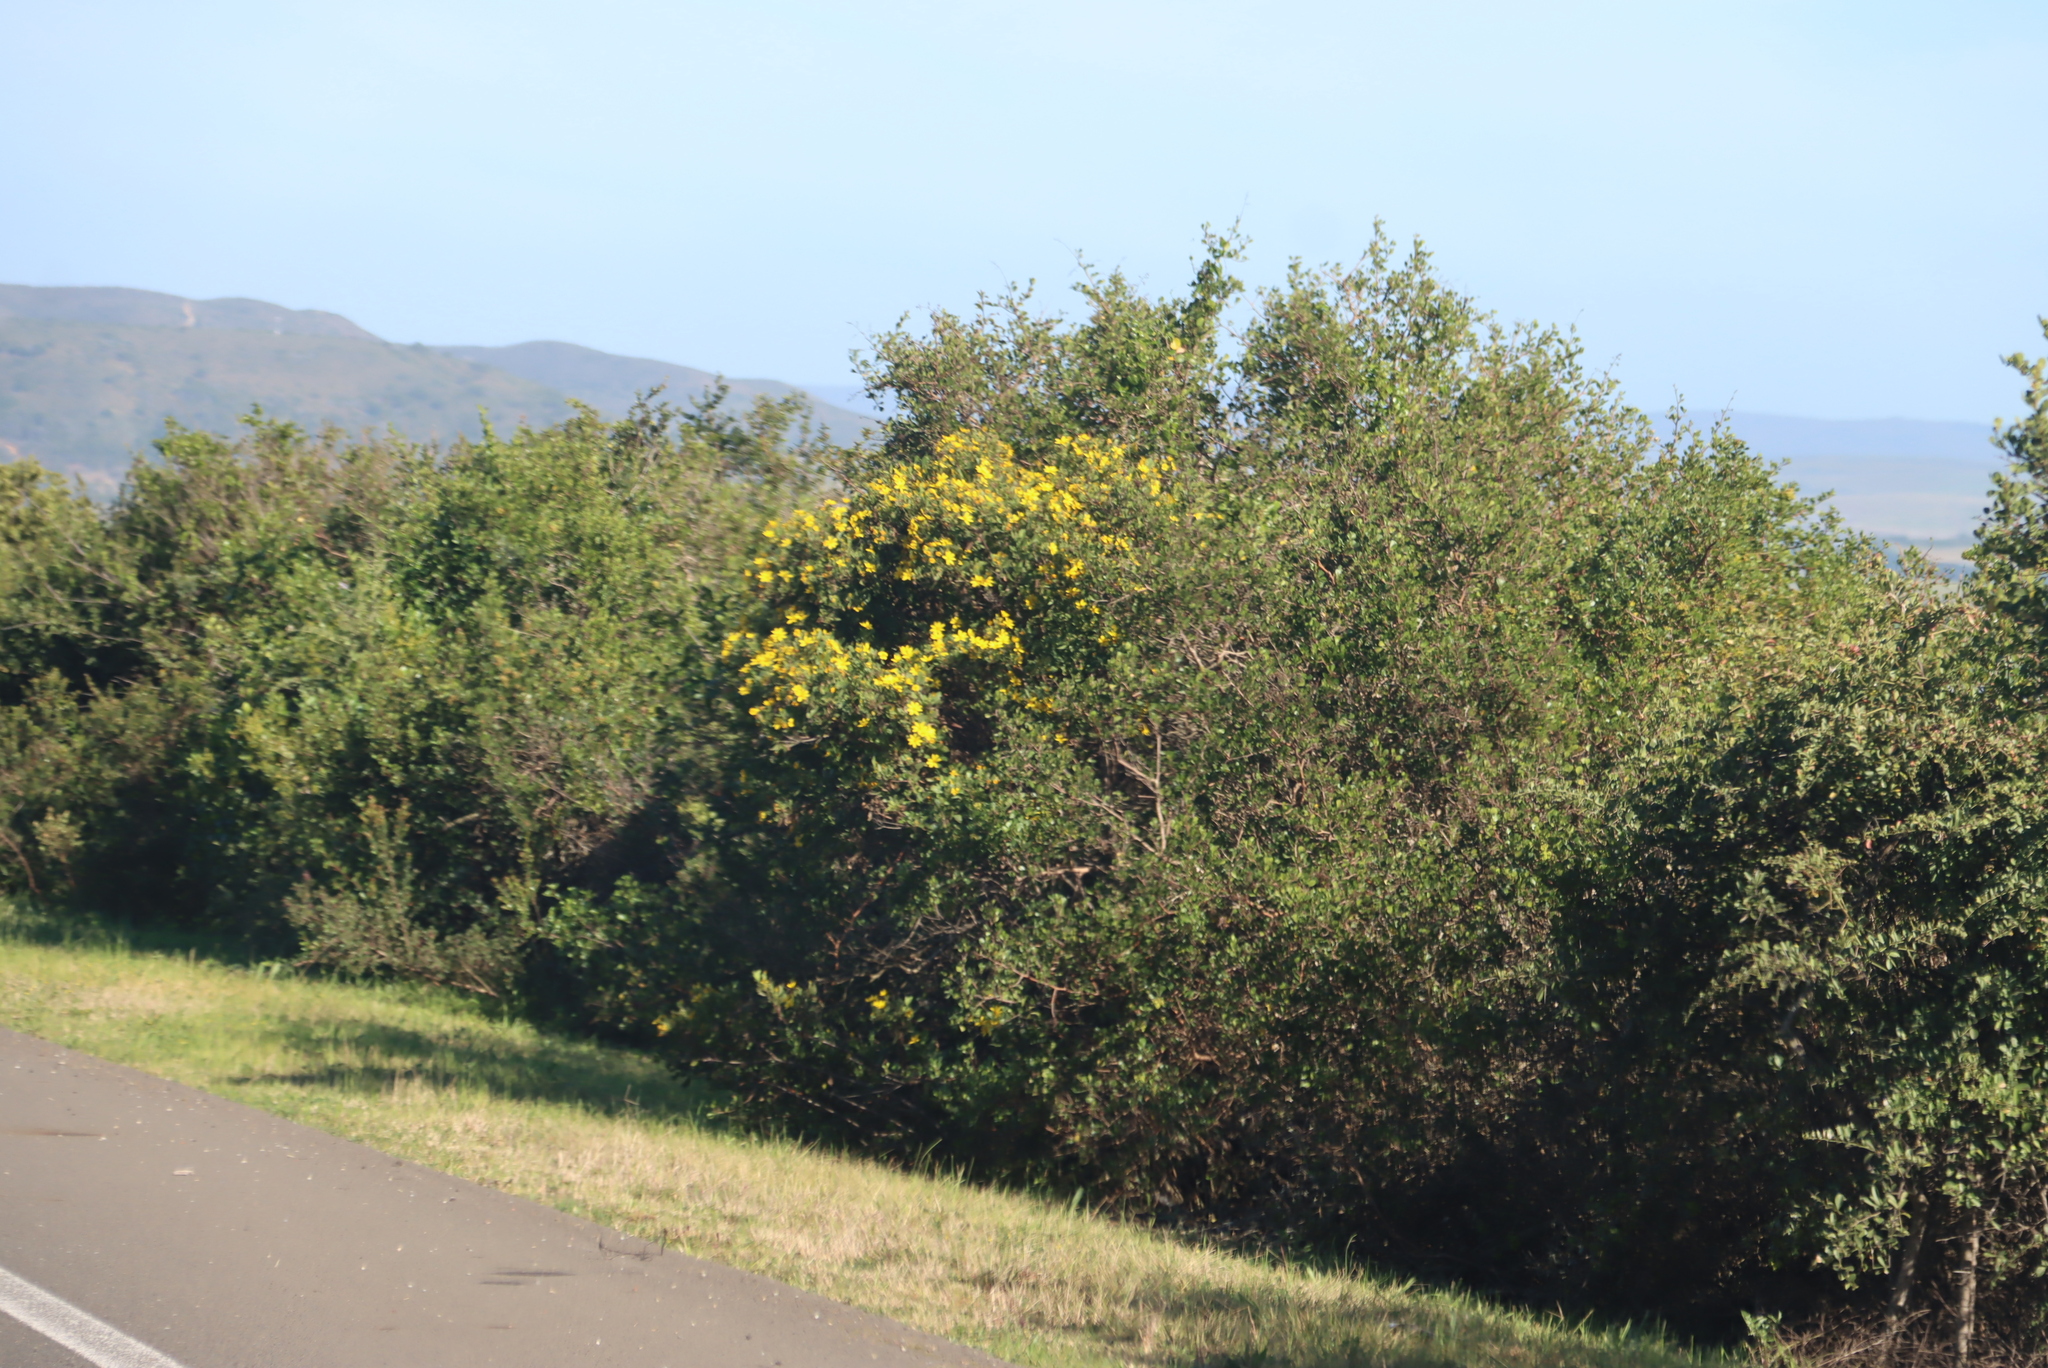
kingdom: Plantae
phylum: Tracheophyta
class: Magnoliopsida
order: Asterales
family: Asteraceae
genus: Osteospermum
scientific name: Osteospermum moniliferum
